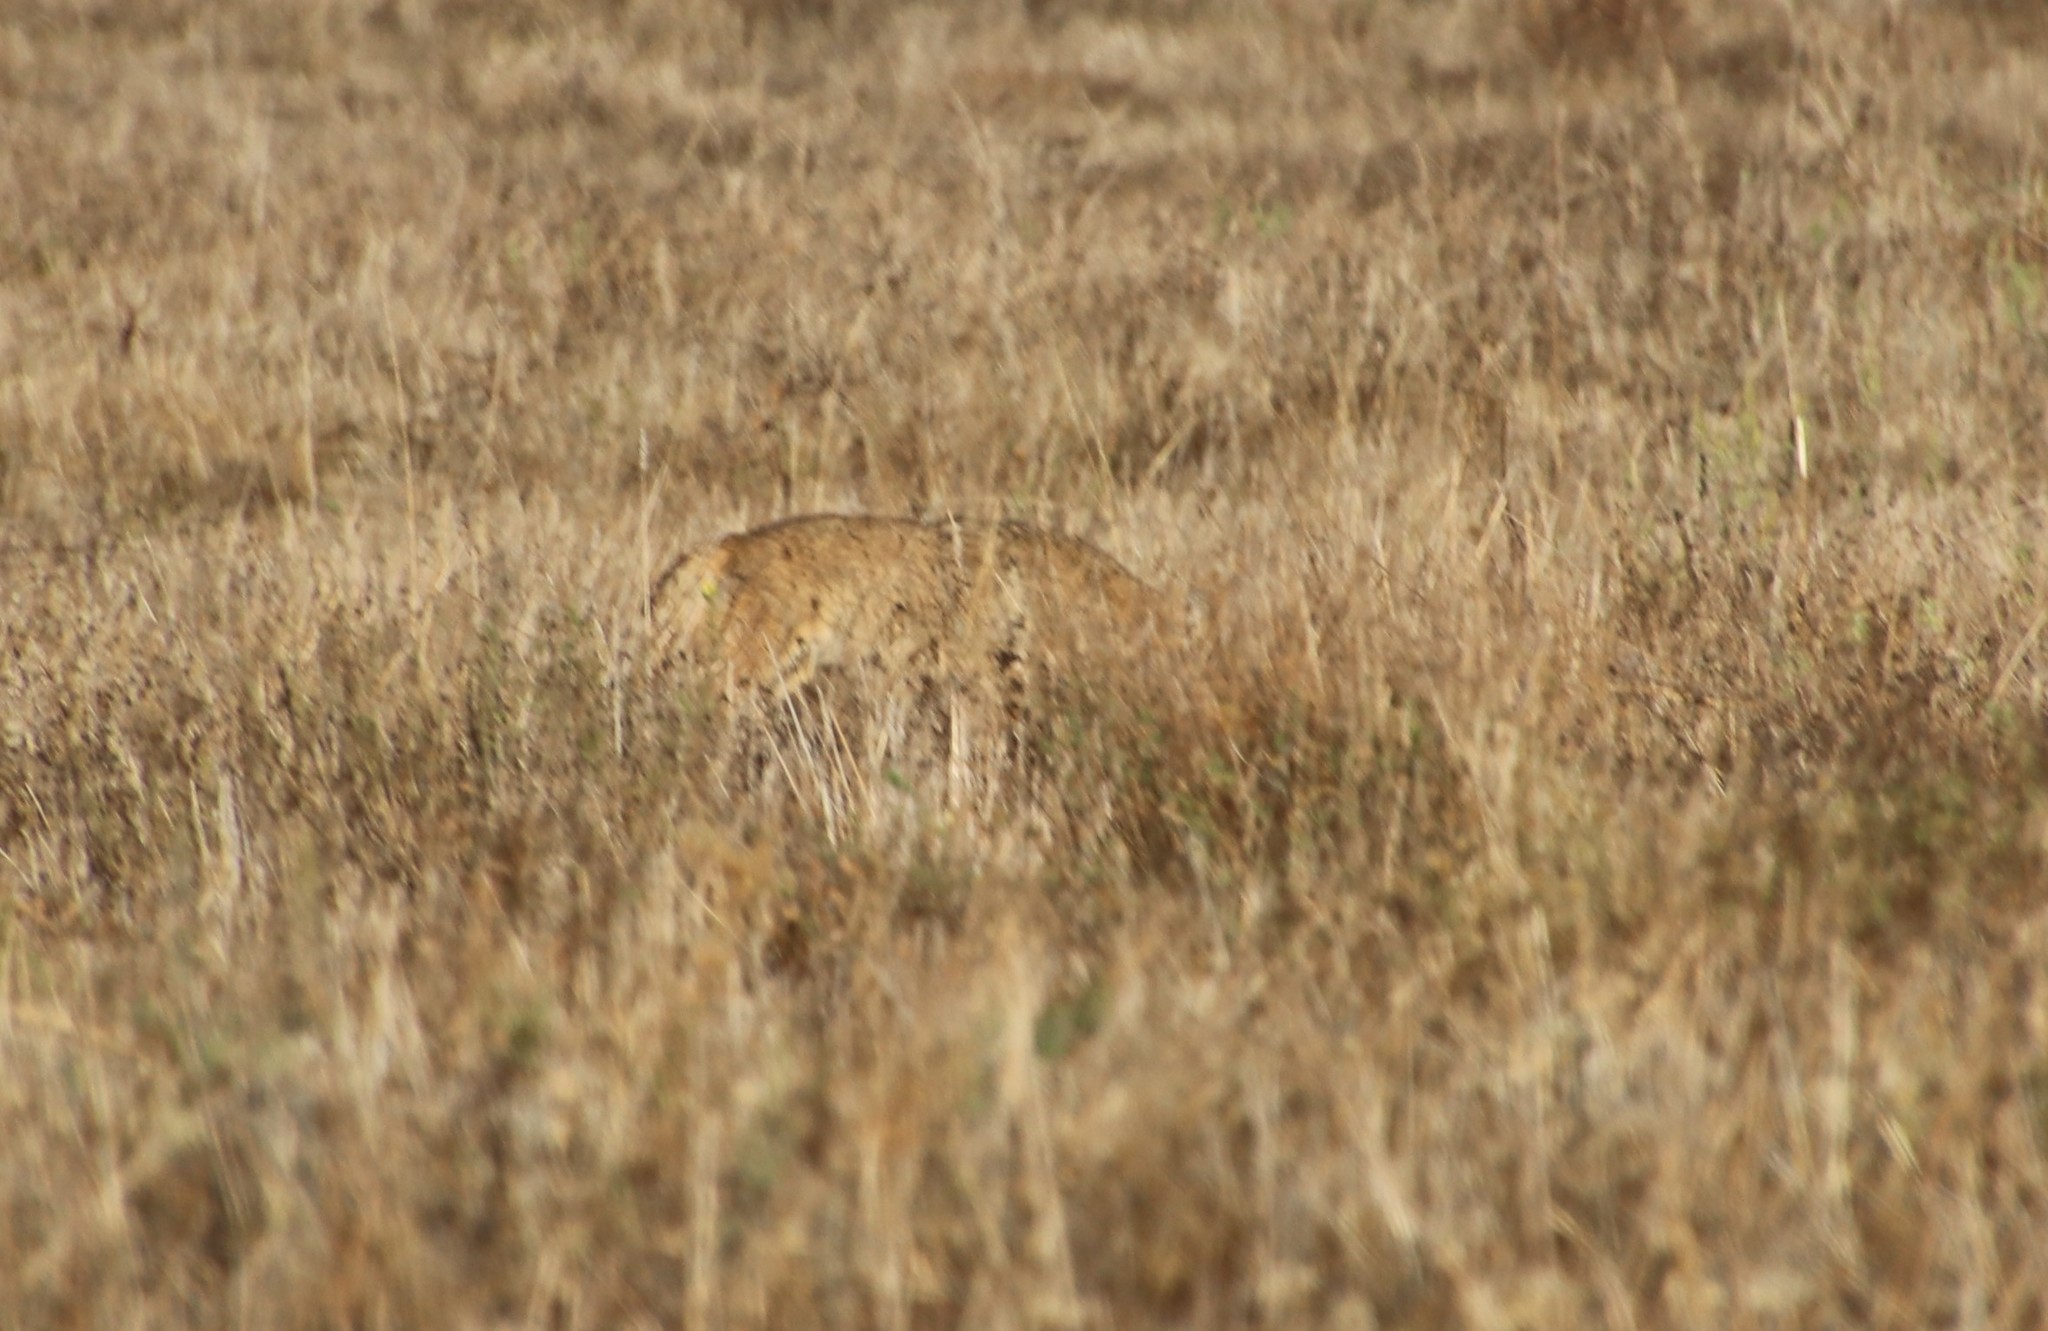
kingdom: Animalia
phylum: Chordata
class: Mammalia
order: Carnivora
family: Canidae
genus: Canis
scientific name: Canis latrans
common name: Coyote
